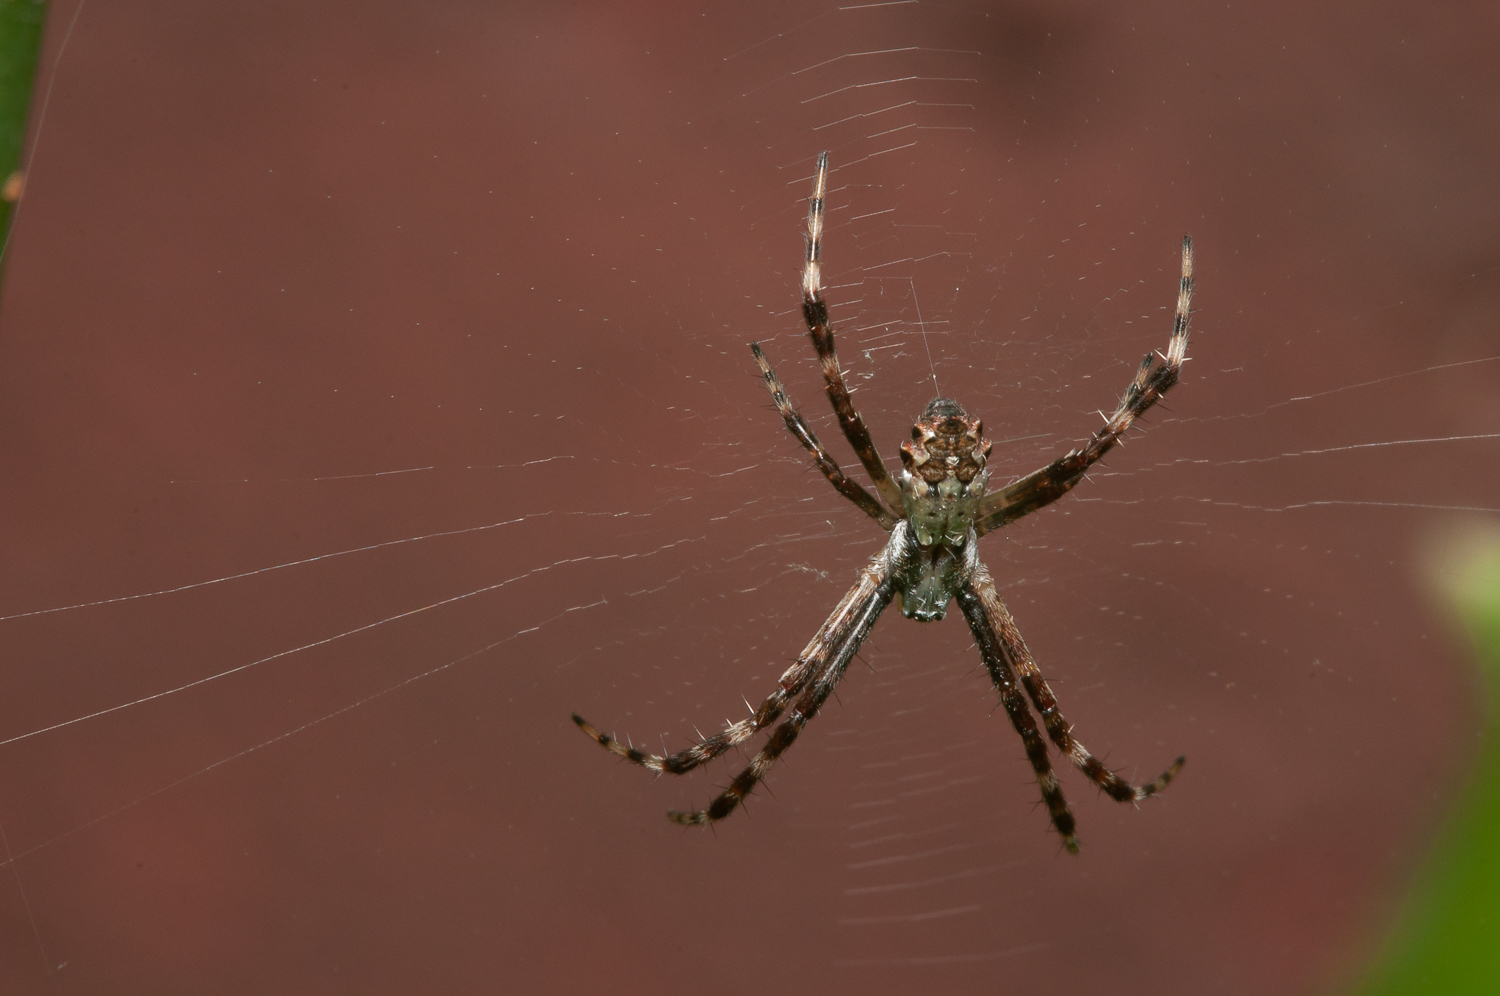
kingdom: Animalia
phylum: Arthropoda
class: Arachnida
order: Araneae
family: Araneidae
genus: Argiope
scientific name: Argiope argentata
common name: Orb weavers
